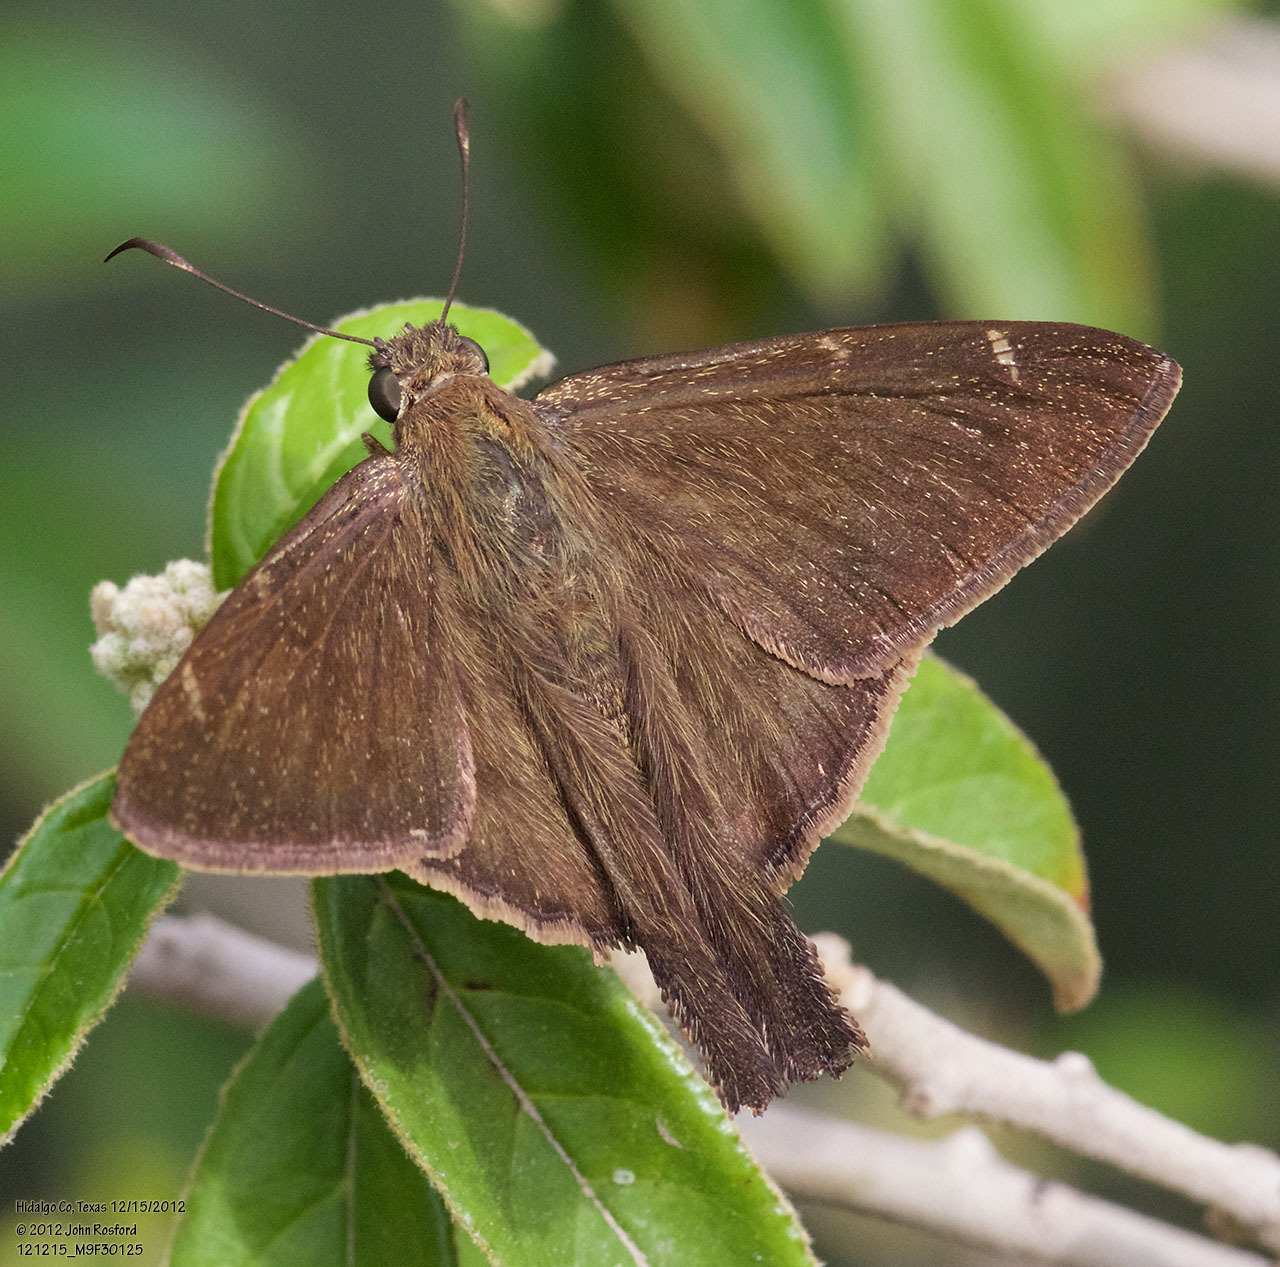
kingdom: Animalia
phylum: Arthropoda
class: Insecta
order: Lepidoptera
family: Hesperiidae
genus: Urbanus
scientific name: Urbanus procne
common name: Brown longtail
